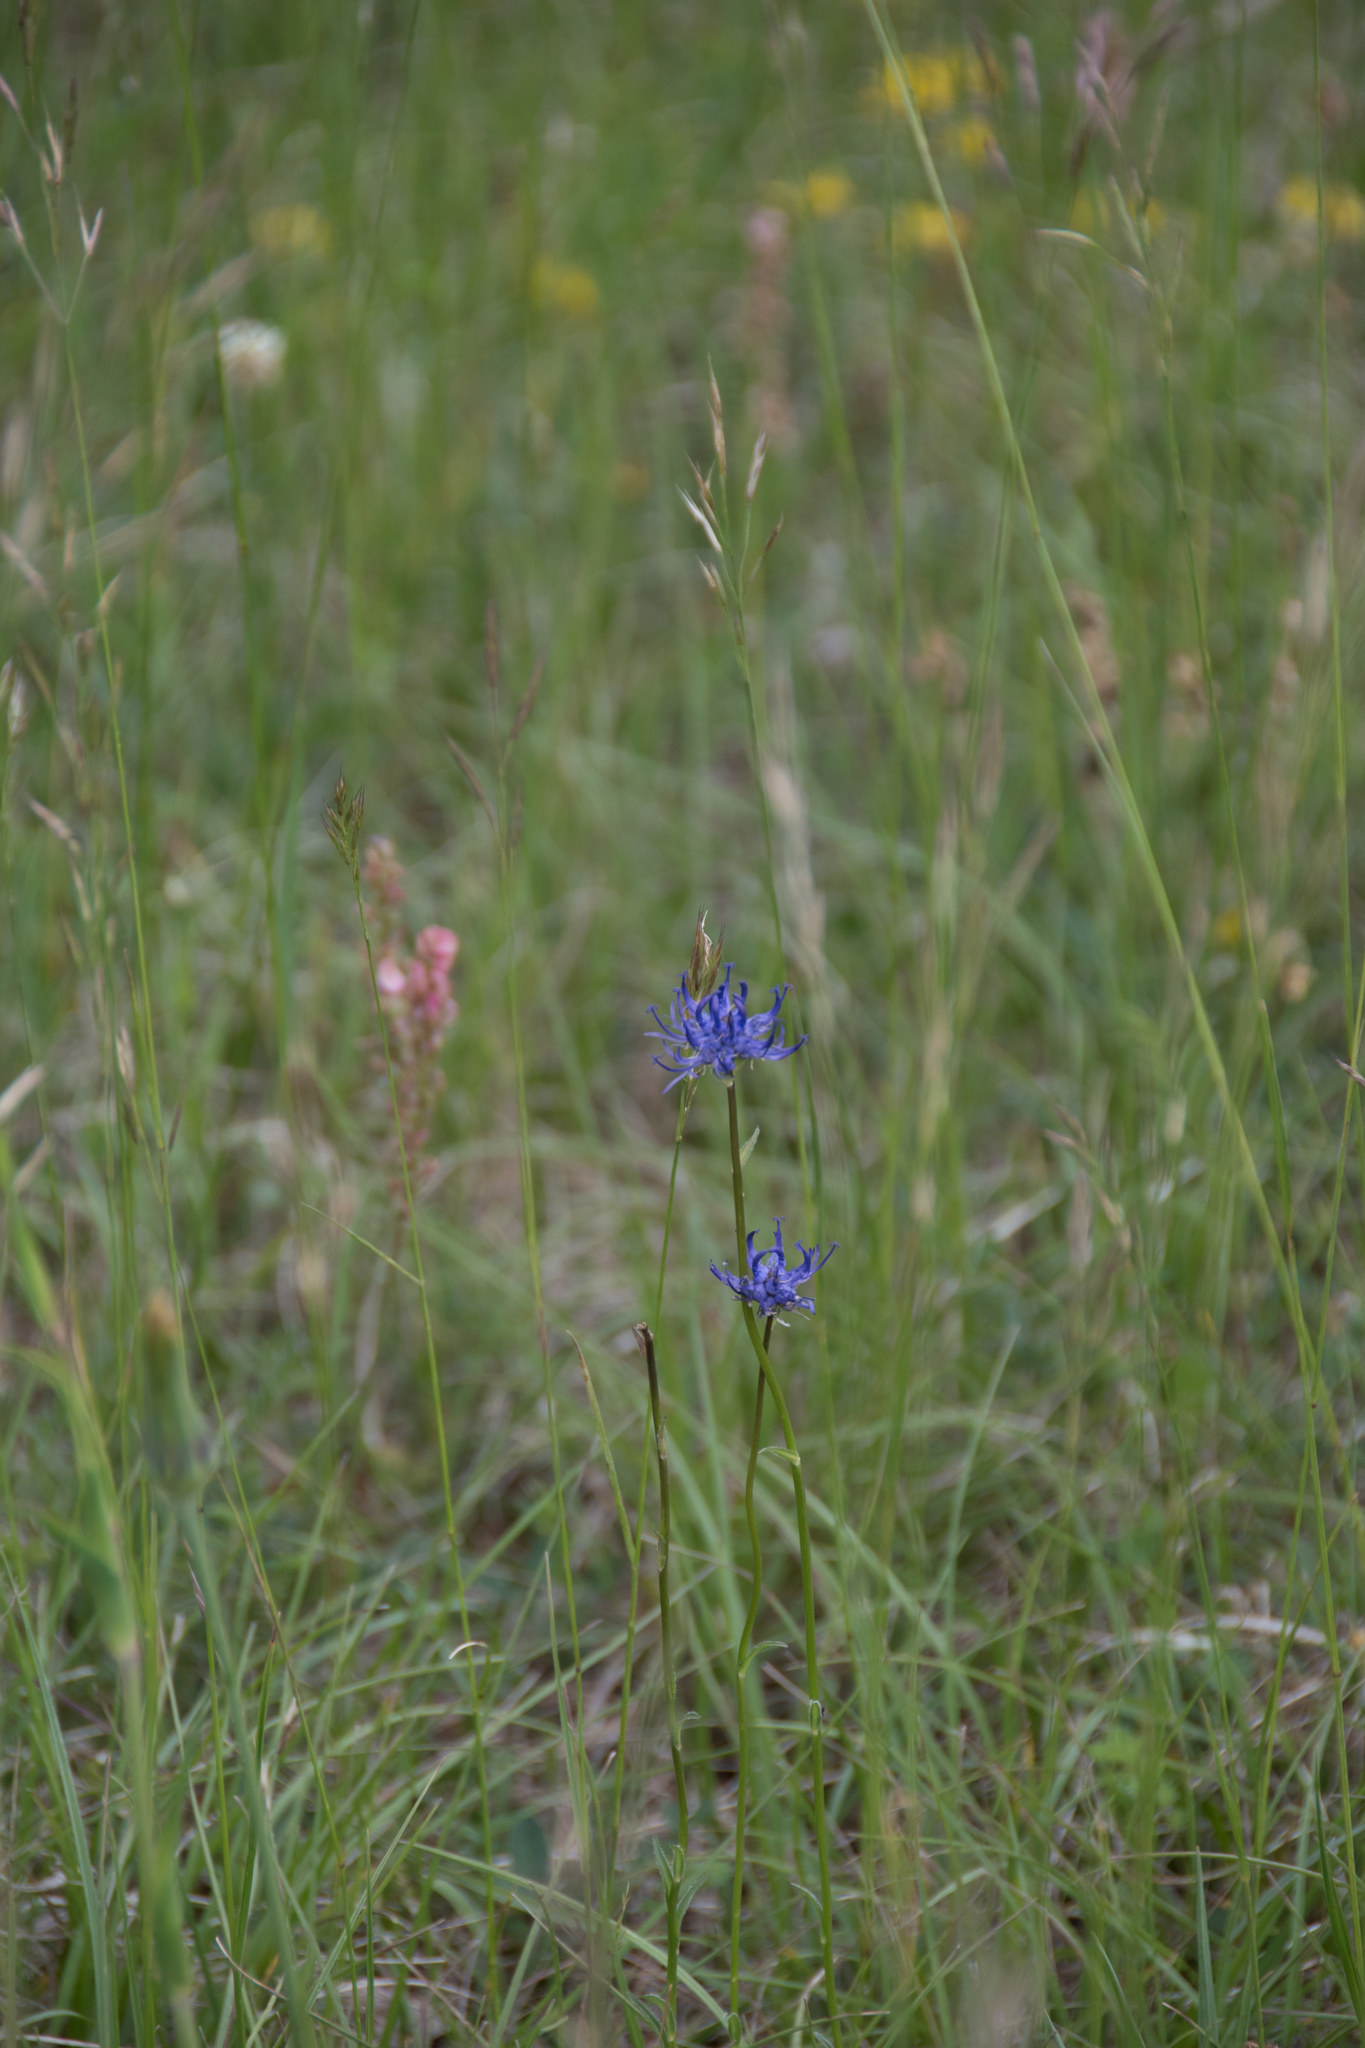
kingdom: Plantae
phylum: Tracheophyta
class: Magnoliopsida
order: Asterales
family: Campanulaceae
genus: Phyteuma
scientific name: Phyteuma orbiculare
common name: Round-headed rampion
